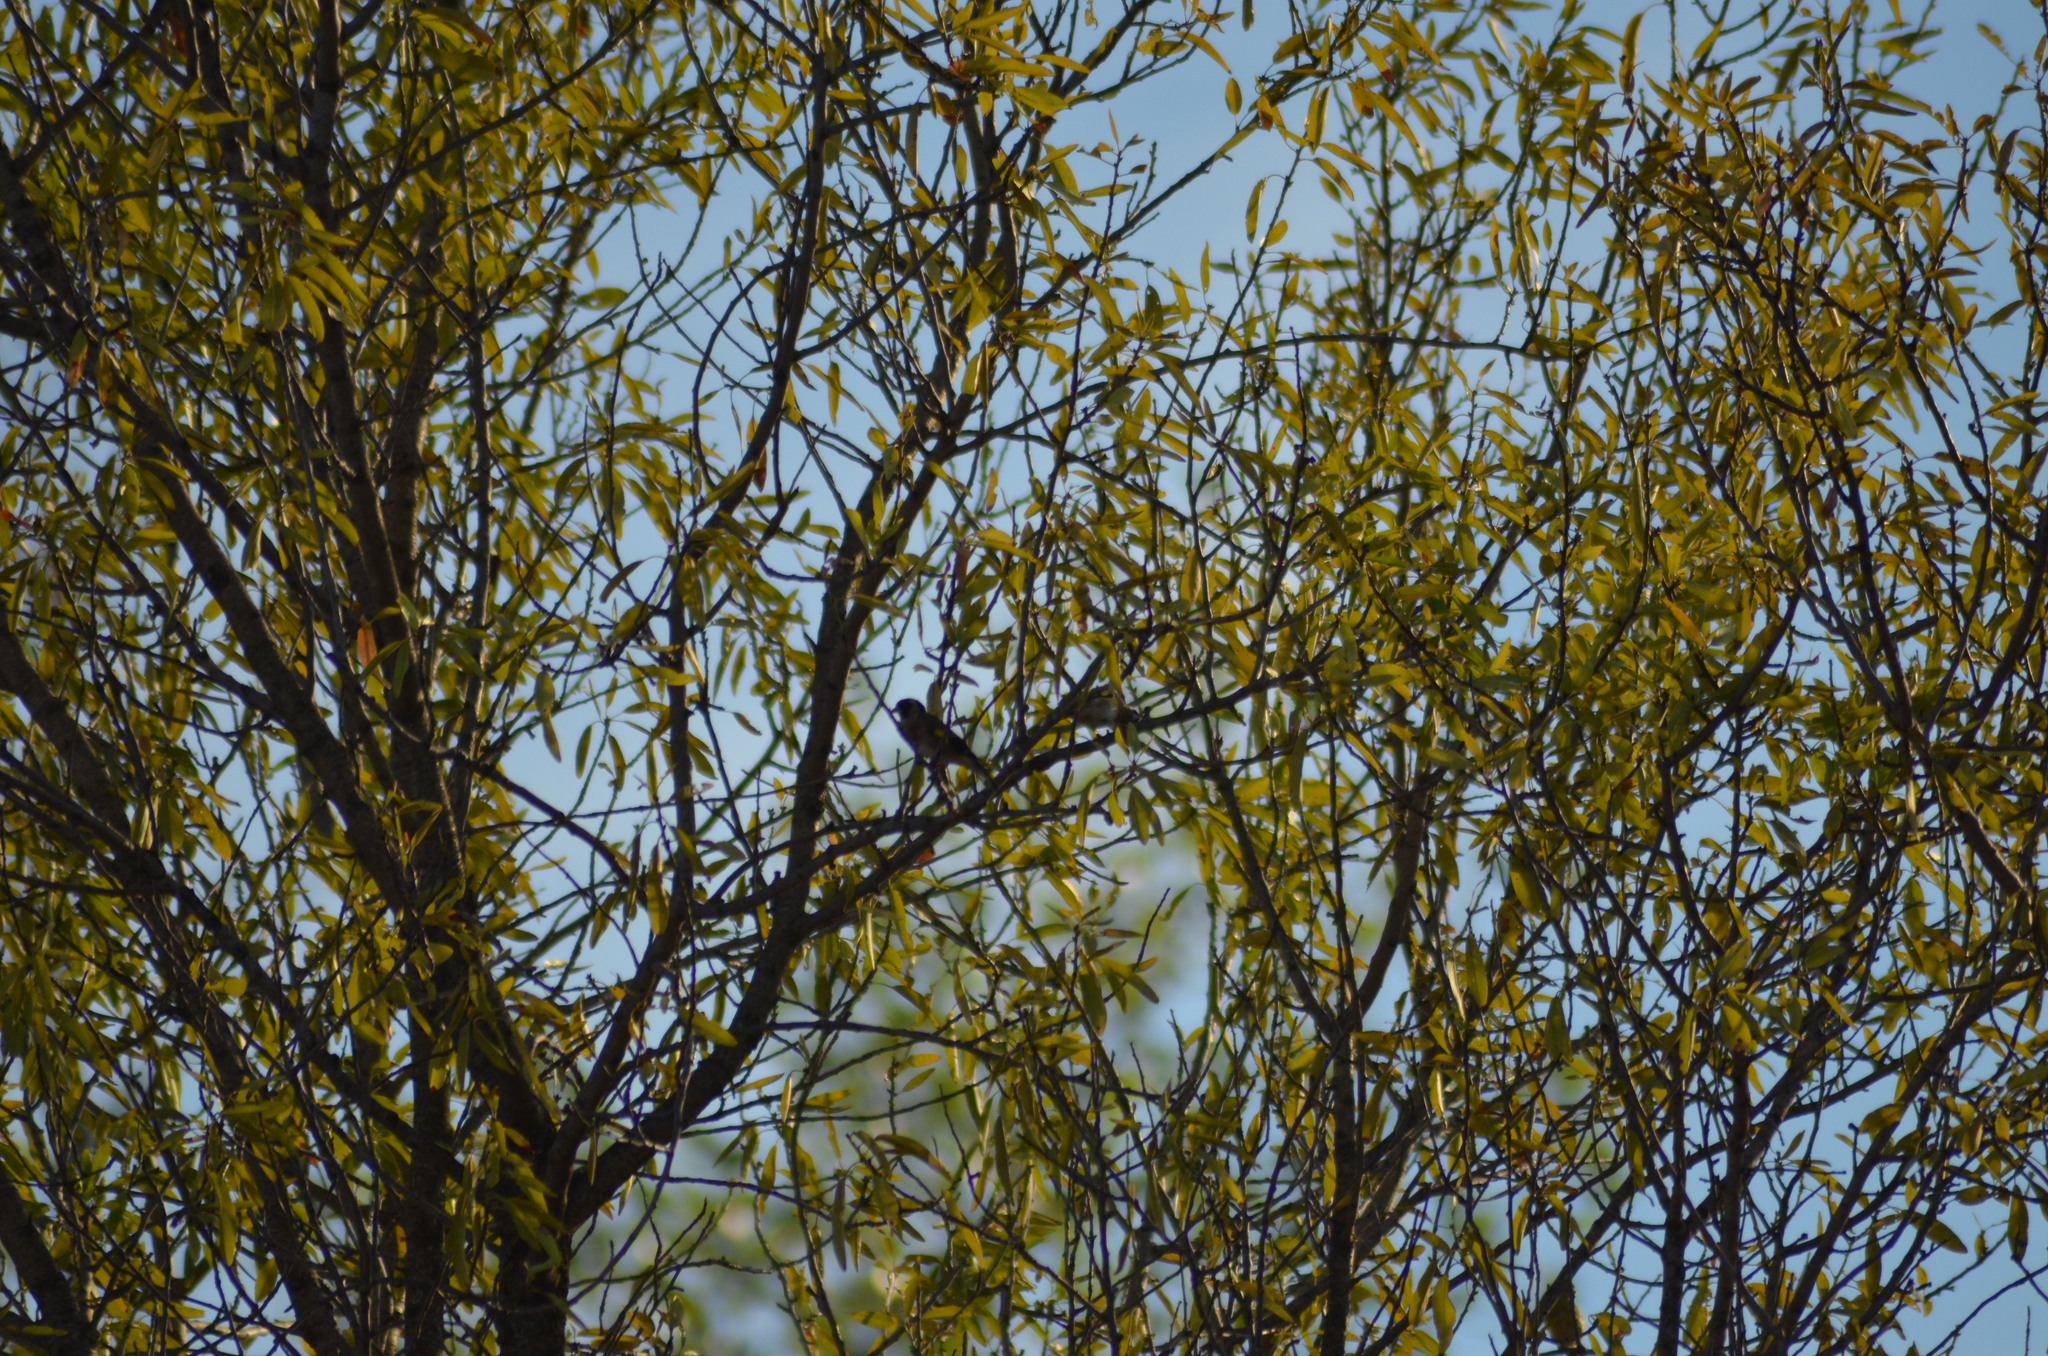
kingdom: Animalia
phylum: Chordata
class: Aves
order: Passeriformes
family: Fringillidae
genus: Carduelis
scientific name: Carduelis carduelis
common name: European goldfinch
